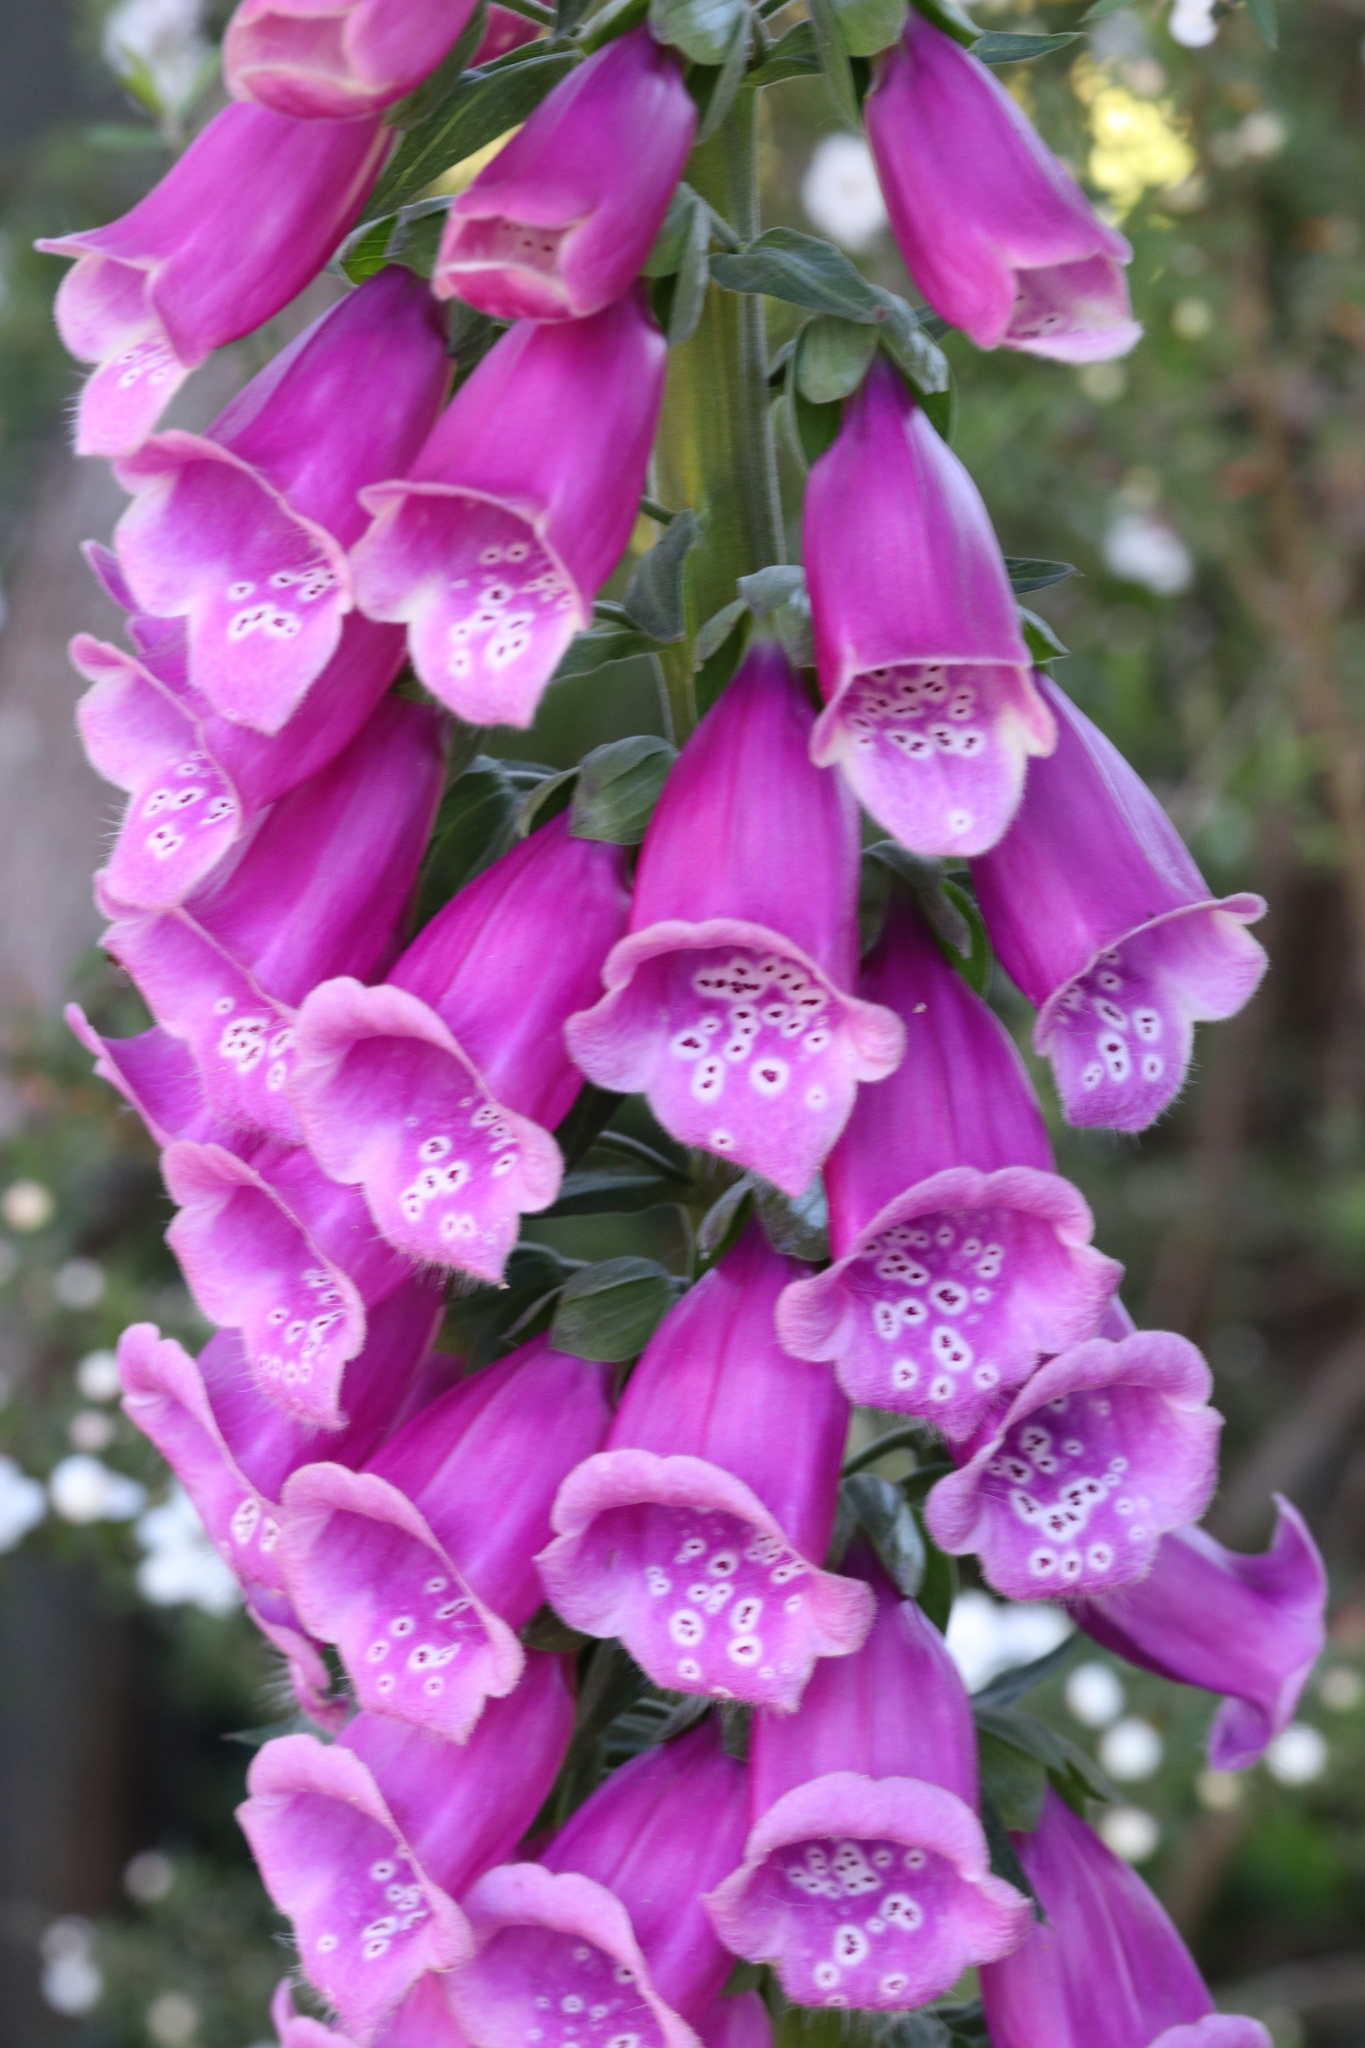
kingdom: Plantae
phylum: Tracheophyta
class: Magnoliopsida
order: Lamiales
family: Plantaginaceae
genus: Digitalis
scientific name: Digitalis purpurea
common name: Foxglove
